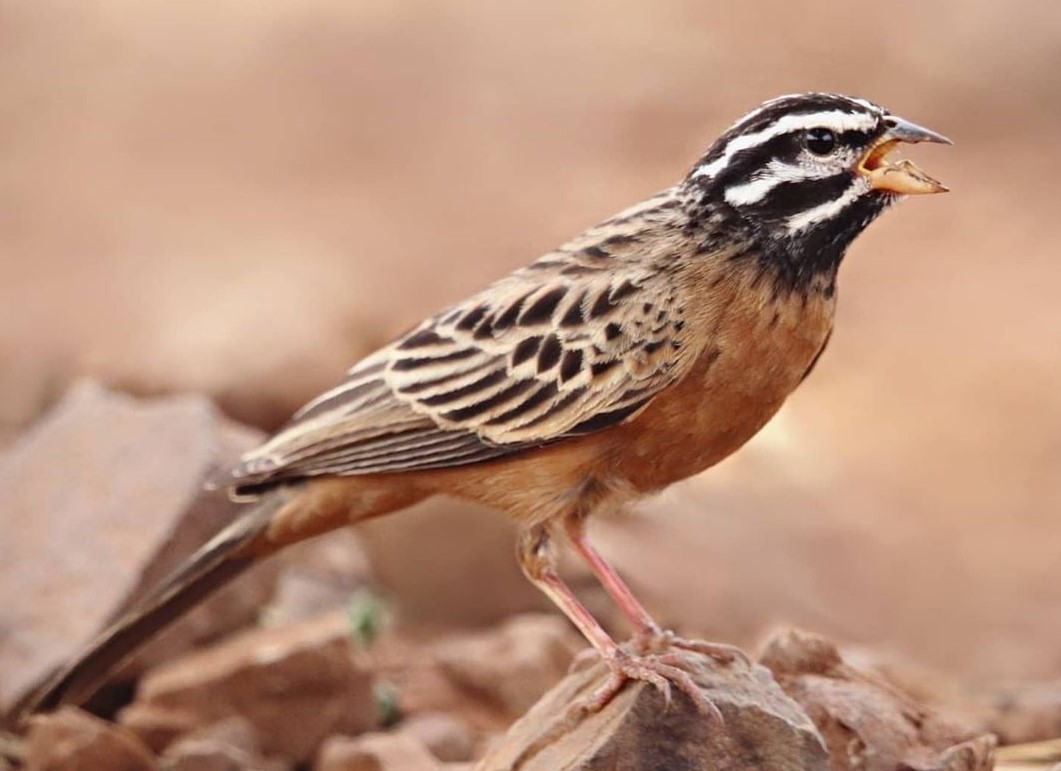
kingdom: Animalia
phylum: Chordata
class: Aves
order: Passeriformes
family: Emberizidae
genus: Emberiza
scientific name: Emberiza tahapisi
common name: Cinnamon-breasted bunting
